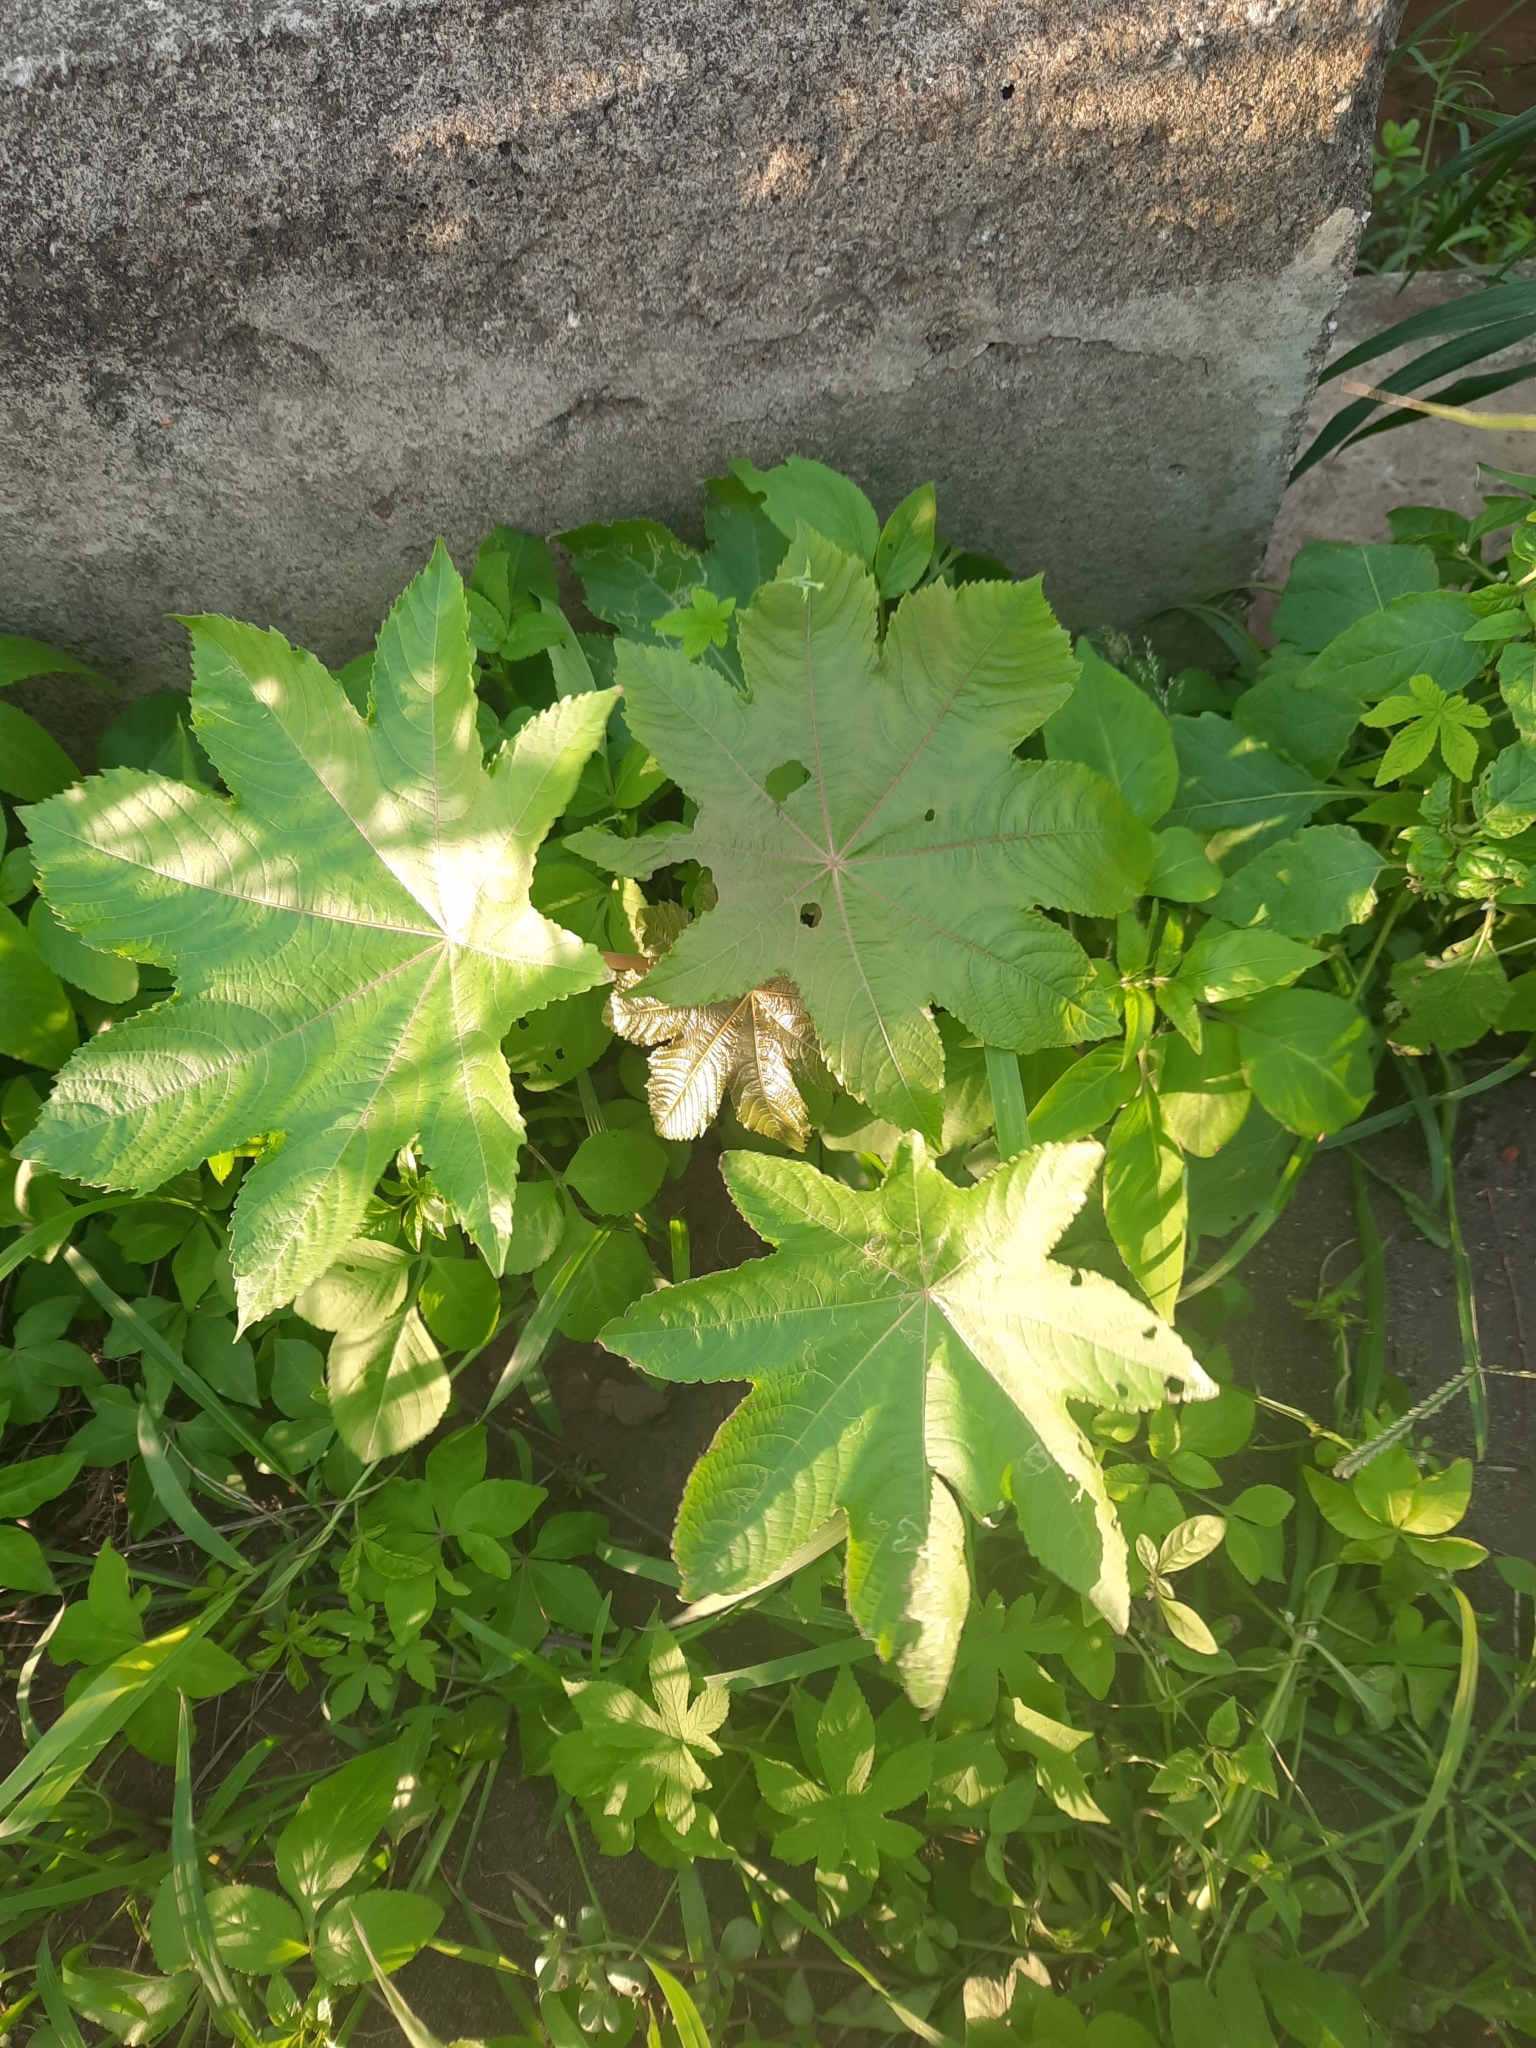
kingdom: Plantae
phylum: Tracheophyta
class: Magnoliopsida
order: Malpighiales
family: Euphorbiaceae
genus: Ricinus
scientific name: Ricinus communis
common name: Castor-oil-plant
